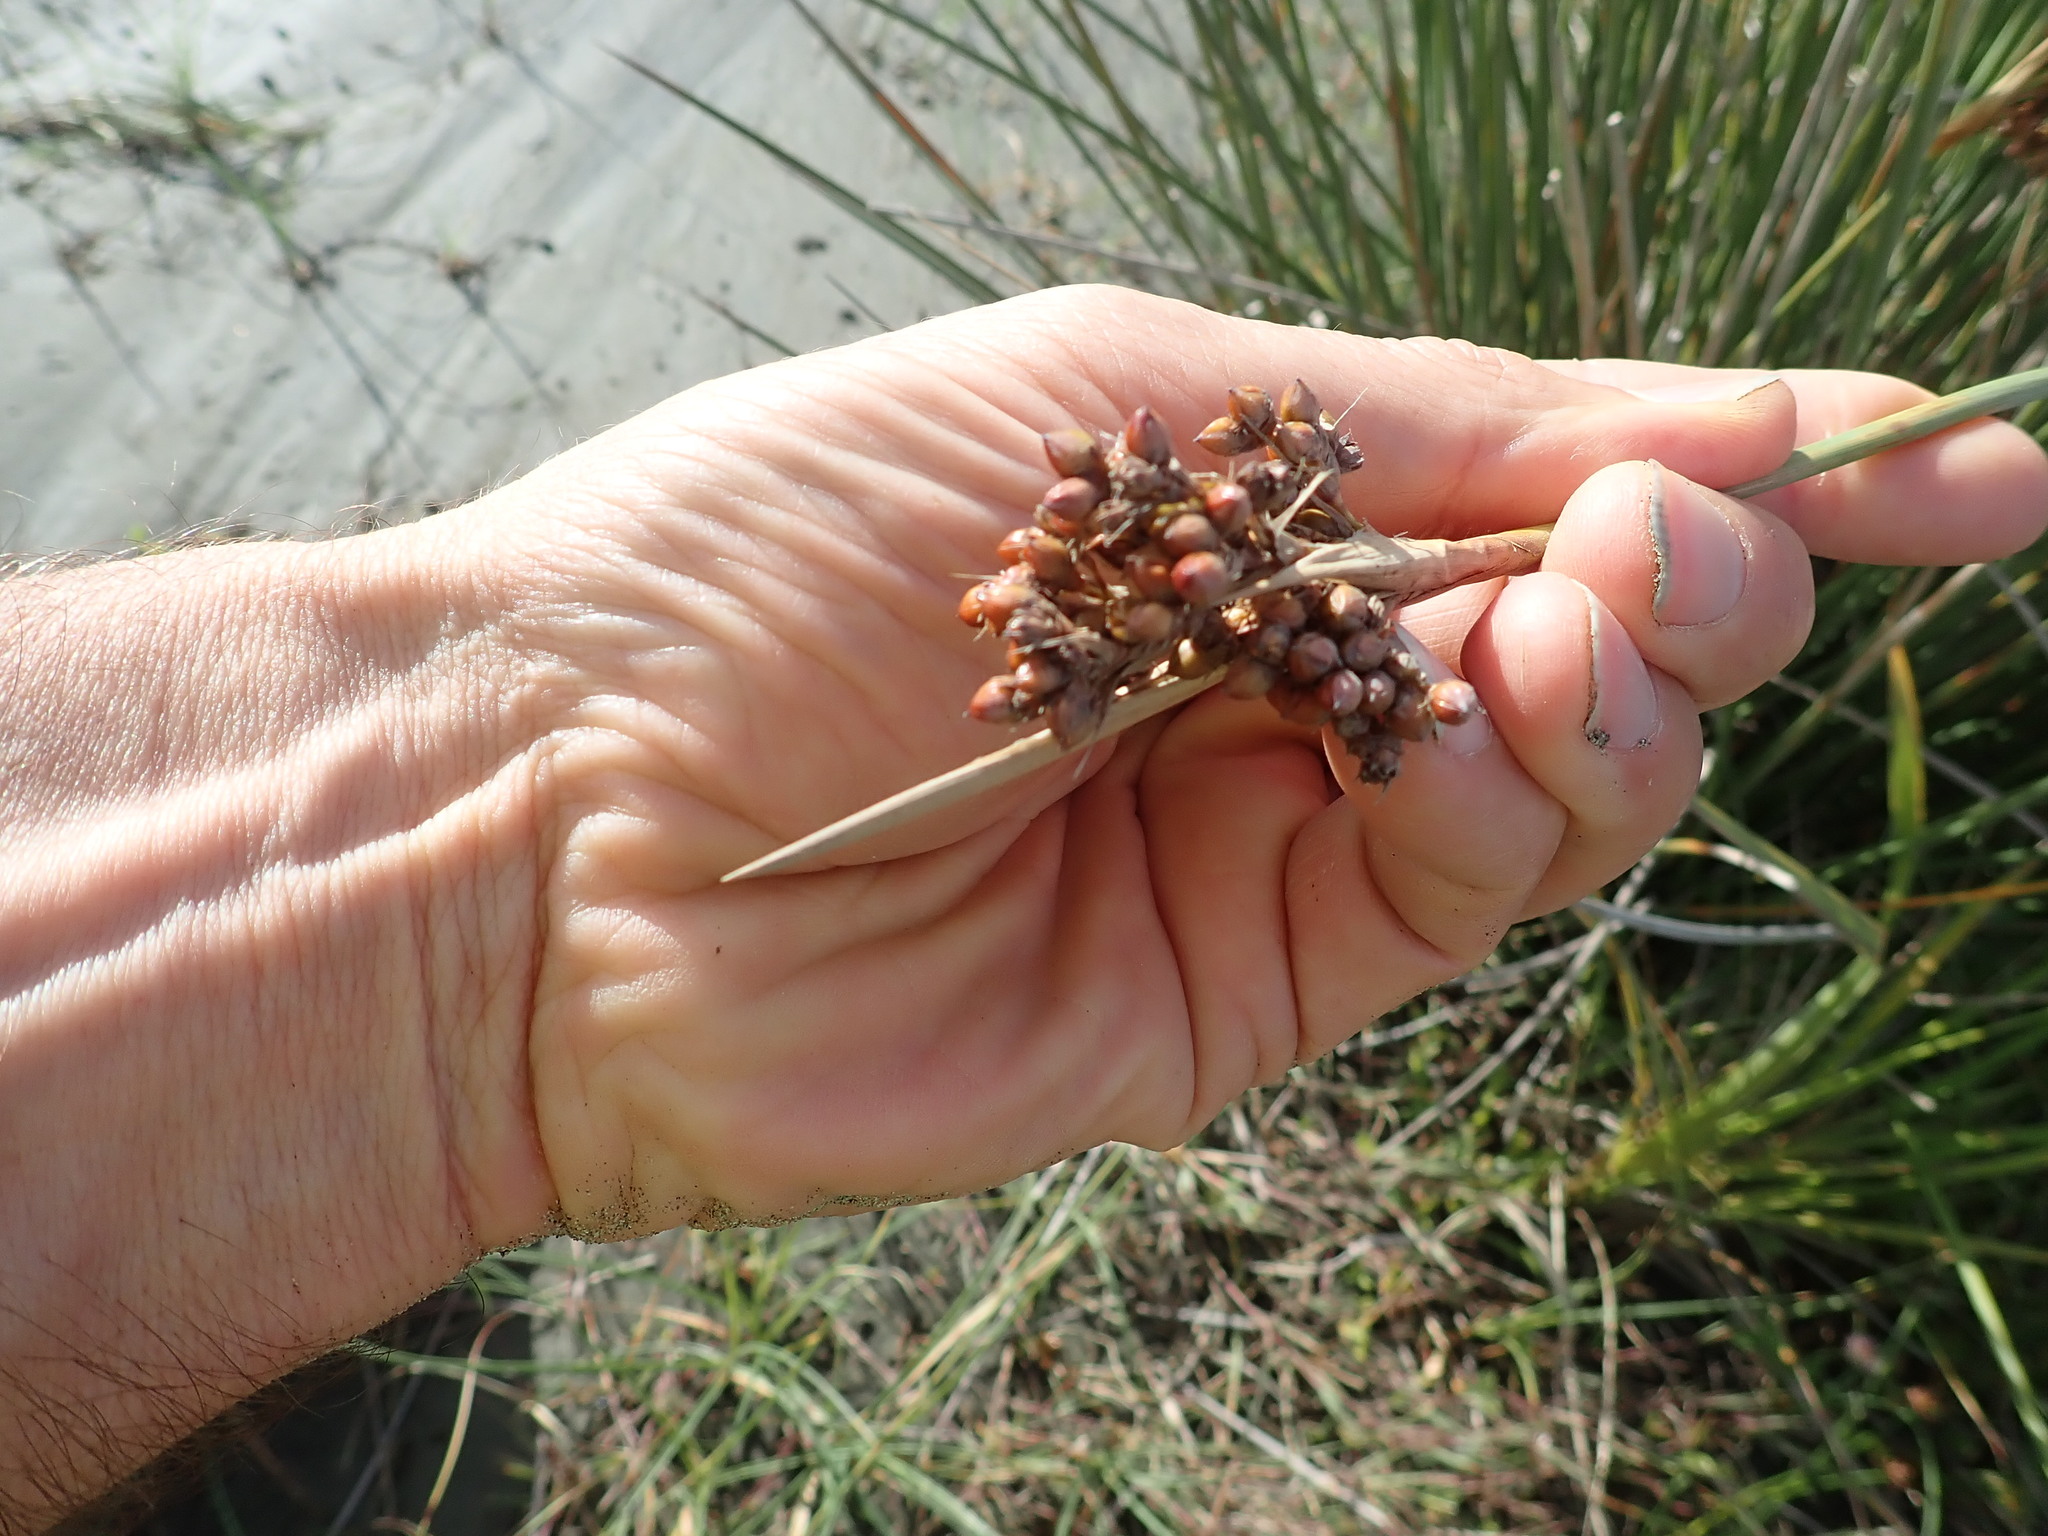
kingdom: Plantae
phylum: Tracheophyta
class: Liliopsida
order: Poales
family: Juncaceae
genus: Juncus
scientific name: Juncus acutus
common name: Sharp rush
